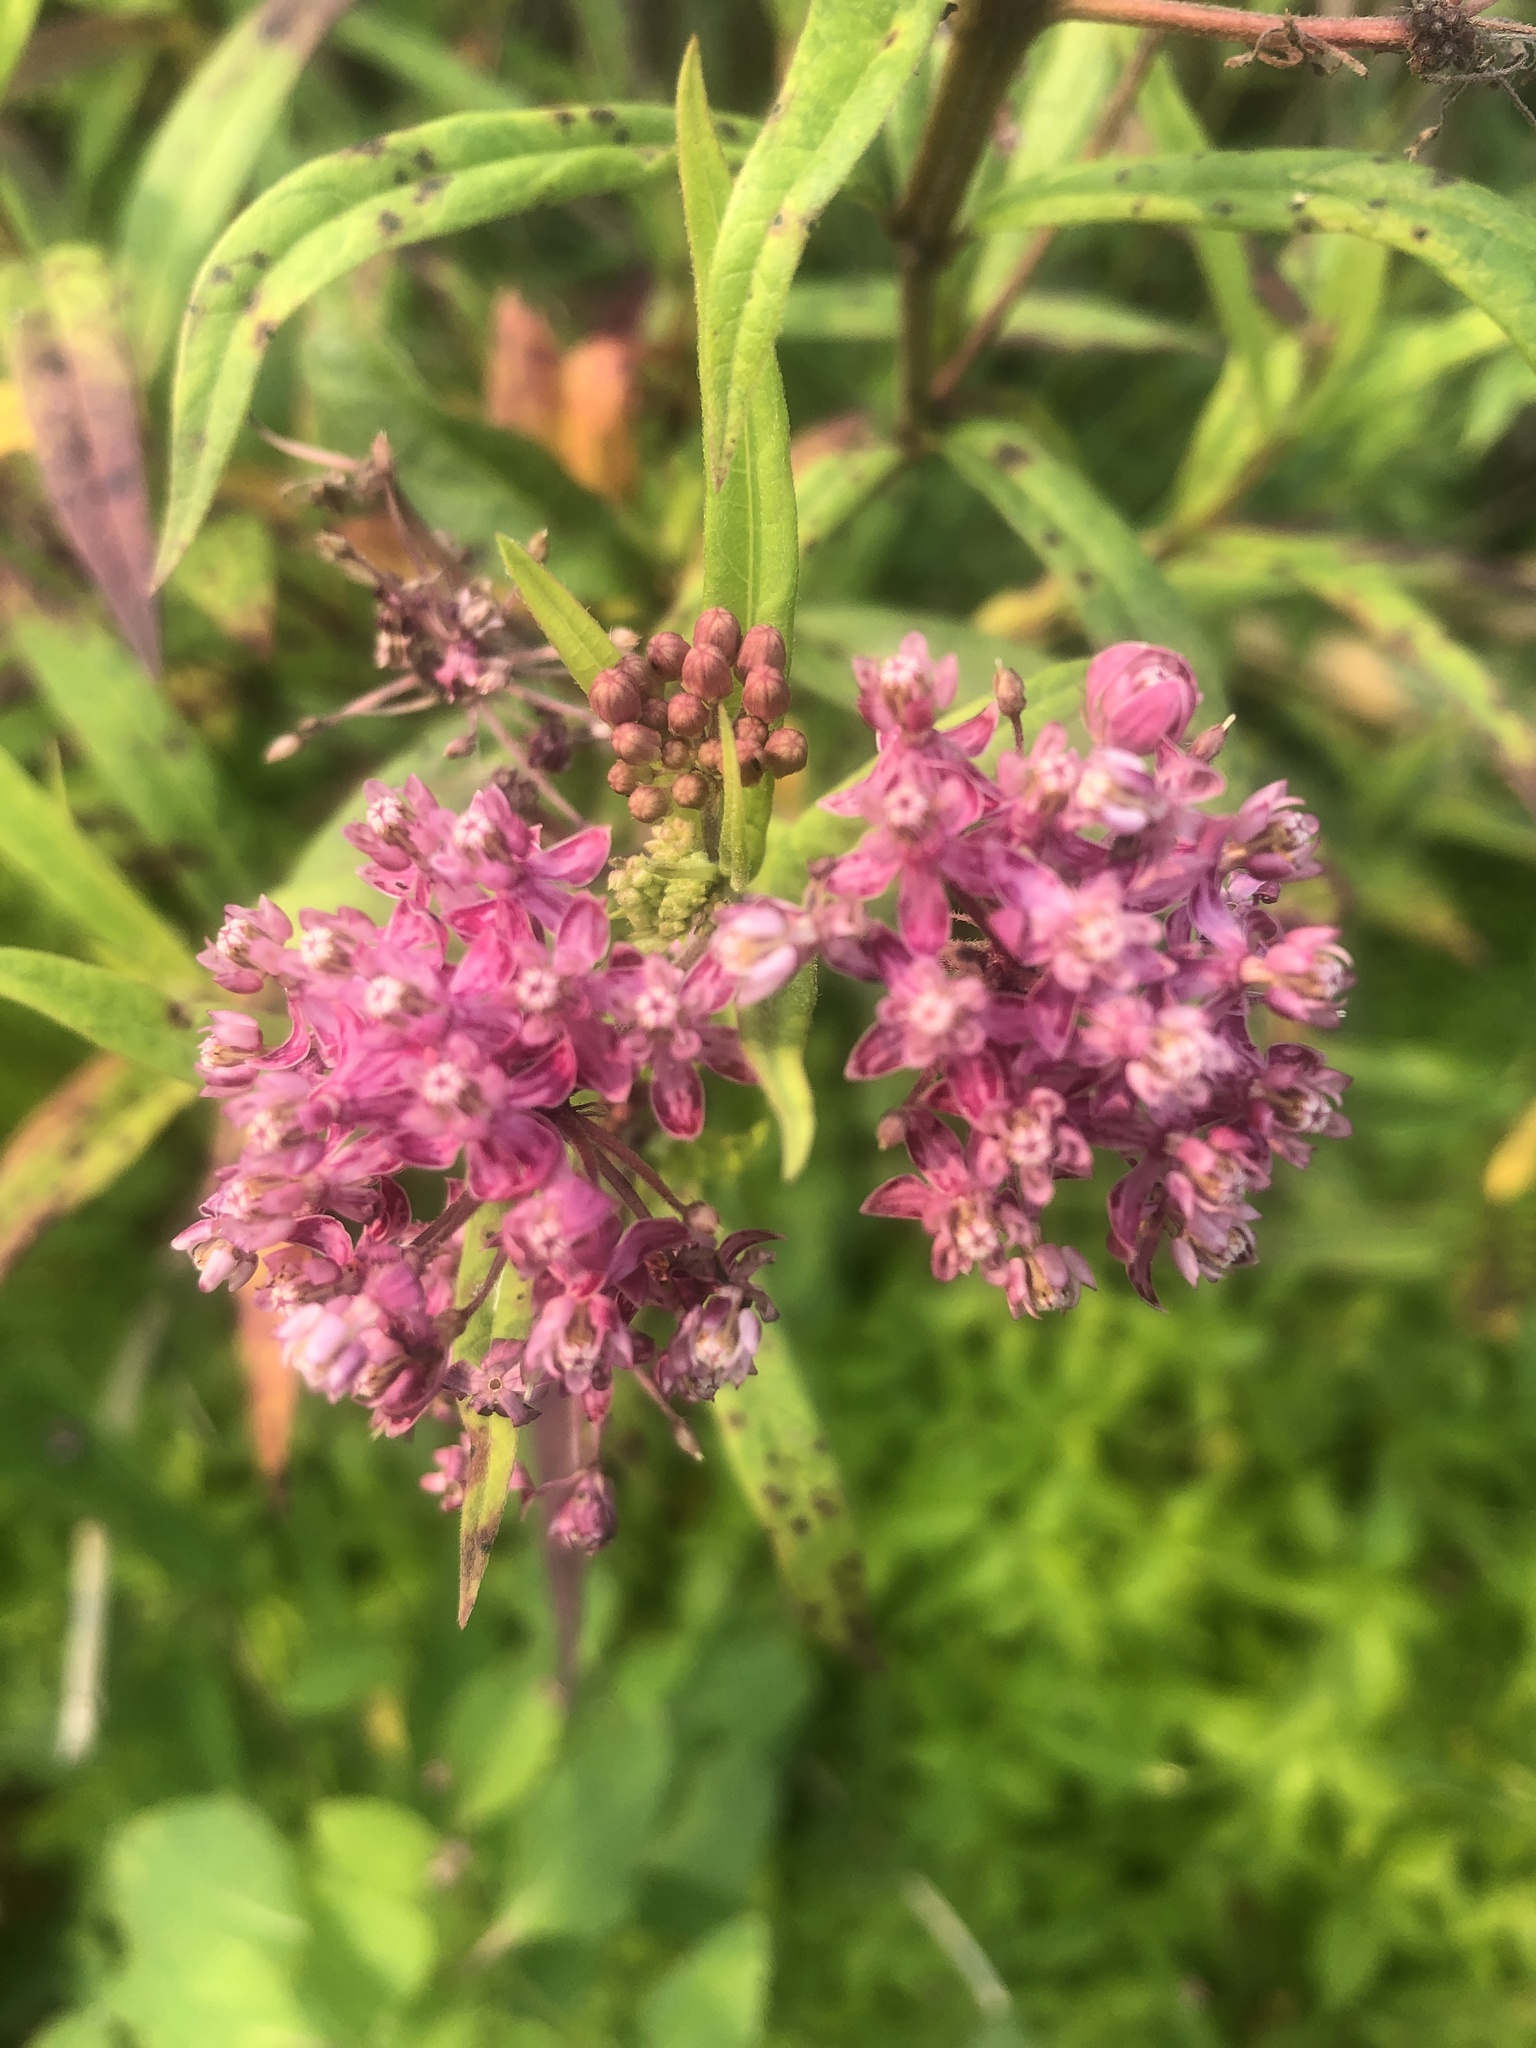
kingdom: Plantae
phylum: Tracheophyta
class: Magnoliopsida
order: Gentianales
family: Apocynaceae
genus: Asclepias
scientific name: Asclepias incarnata
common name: Swamp milkweed
